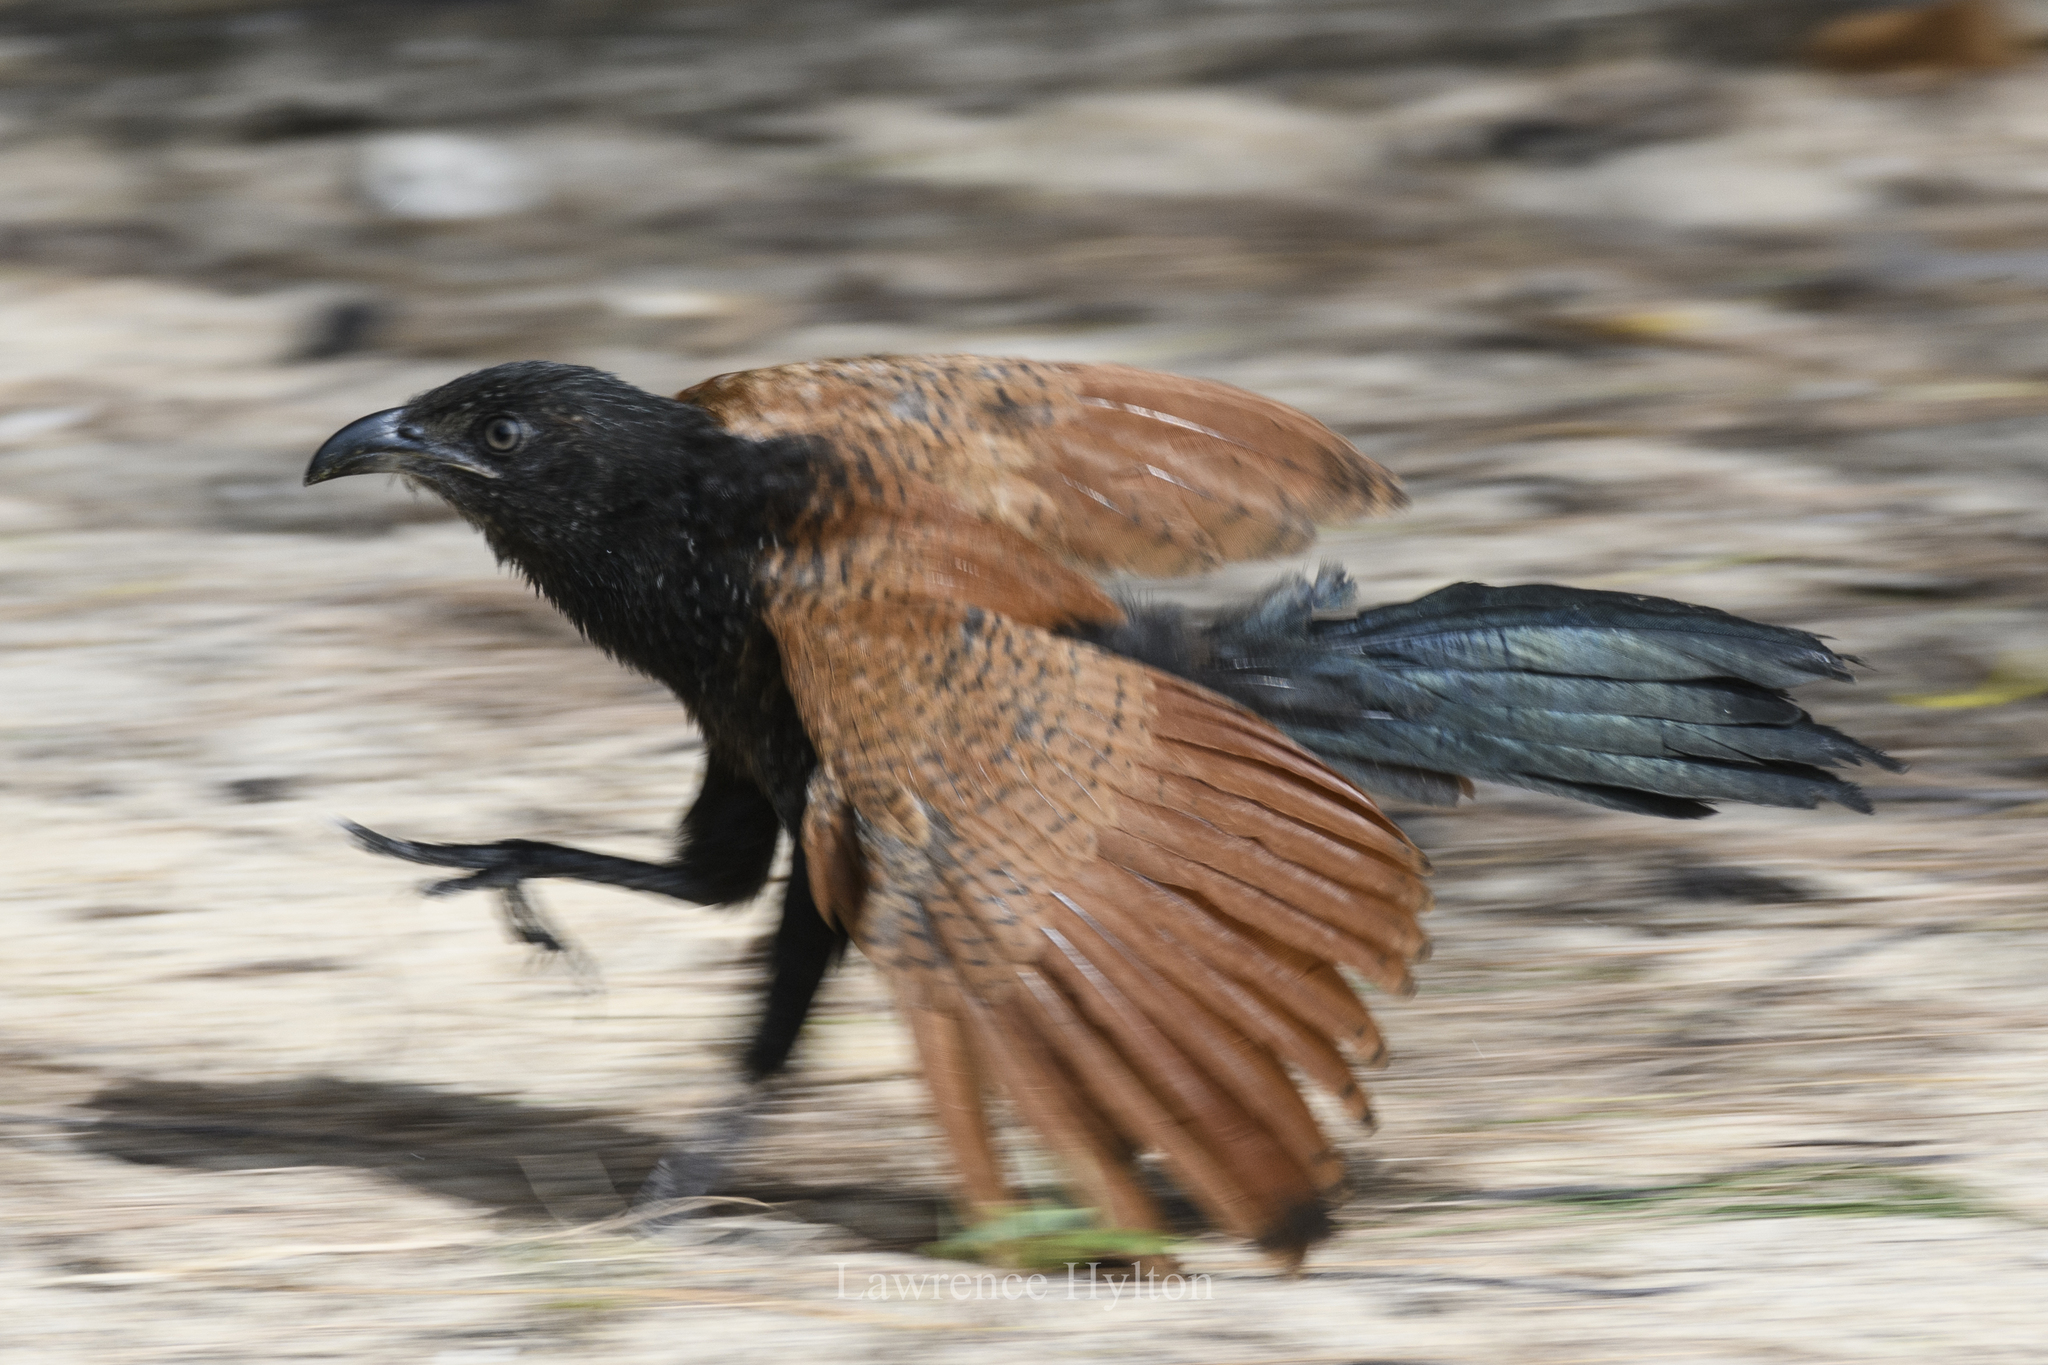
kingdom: Animalia
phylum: Chordata
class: Aves
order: Cuculiformes
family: Cuculidae
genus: Centropus
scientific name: Centropus sinensis
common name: Greater coucal
